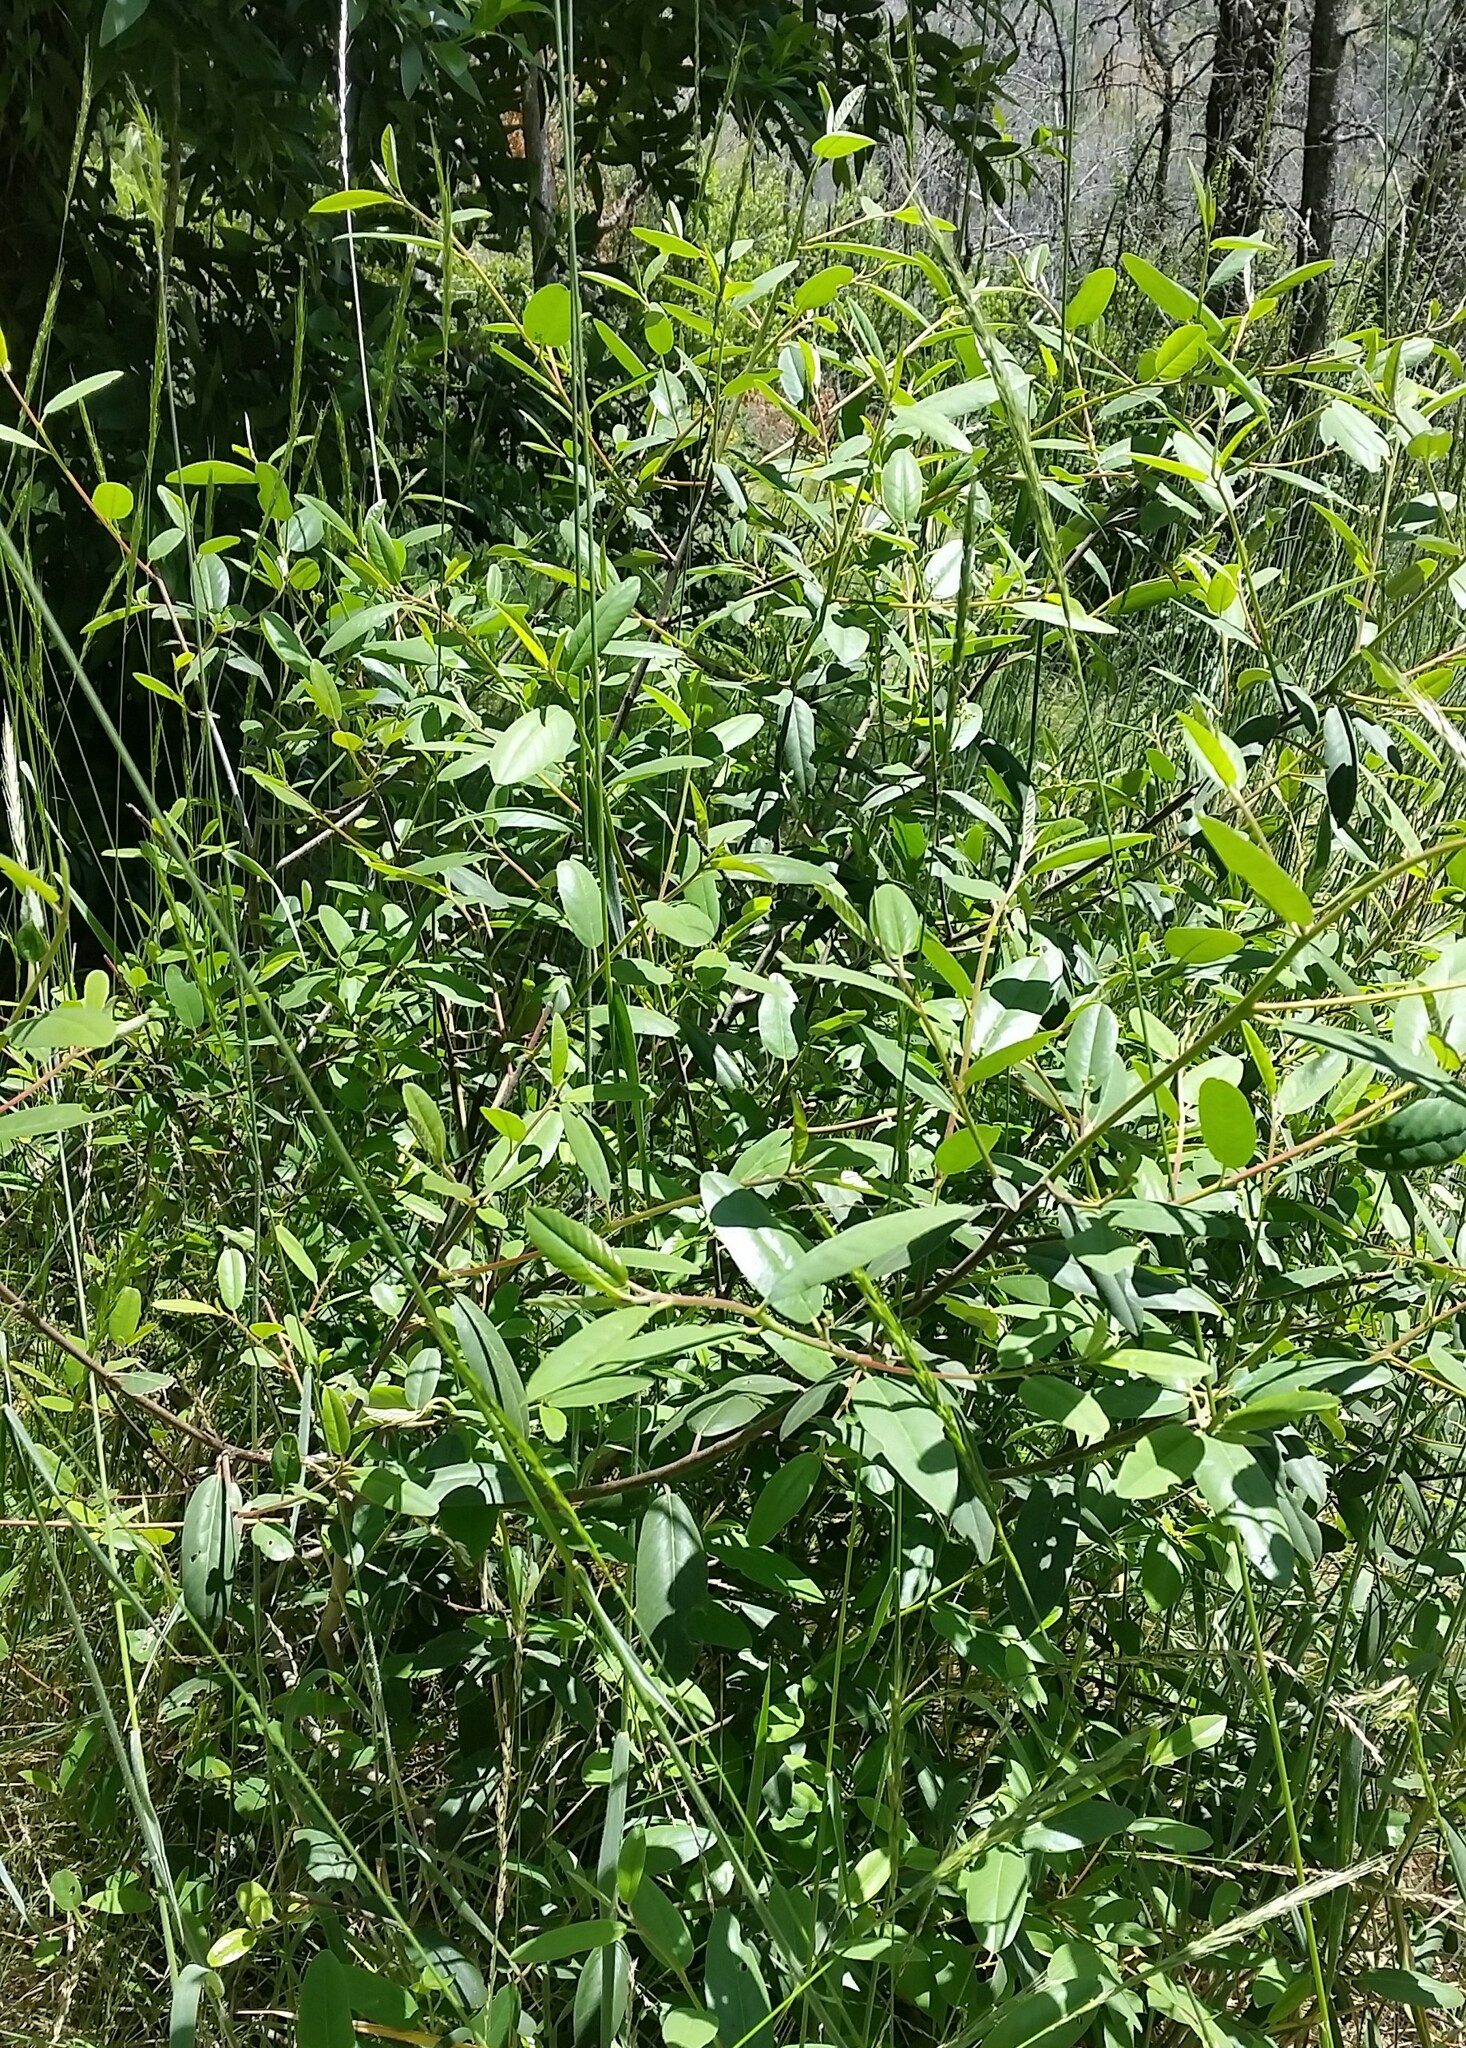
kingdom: Plantae
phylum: Tracheophyta
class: Magnoliopsida
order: Rosales
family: Rhamnaceae
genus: Frangula
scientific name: Frangula californica
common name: California buckthorn
